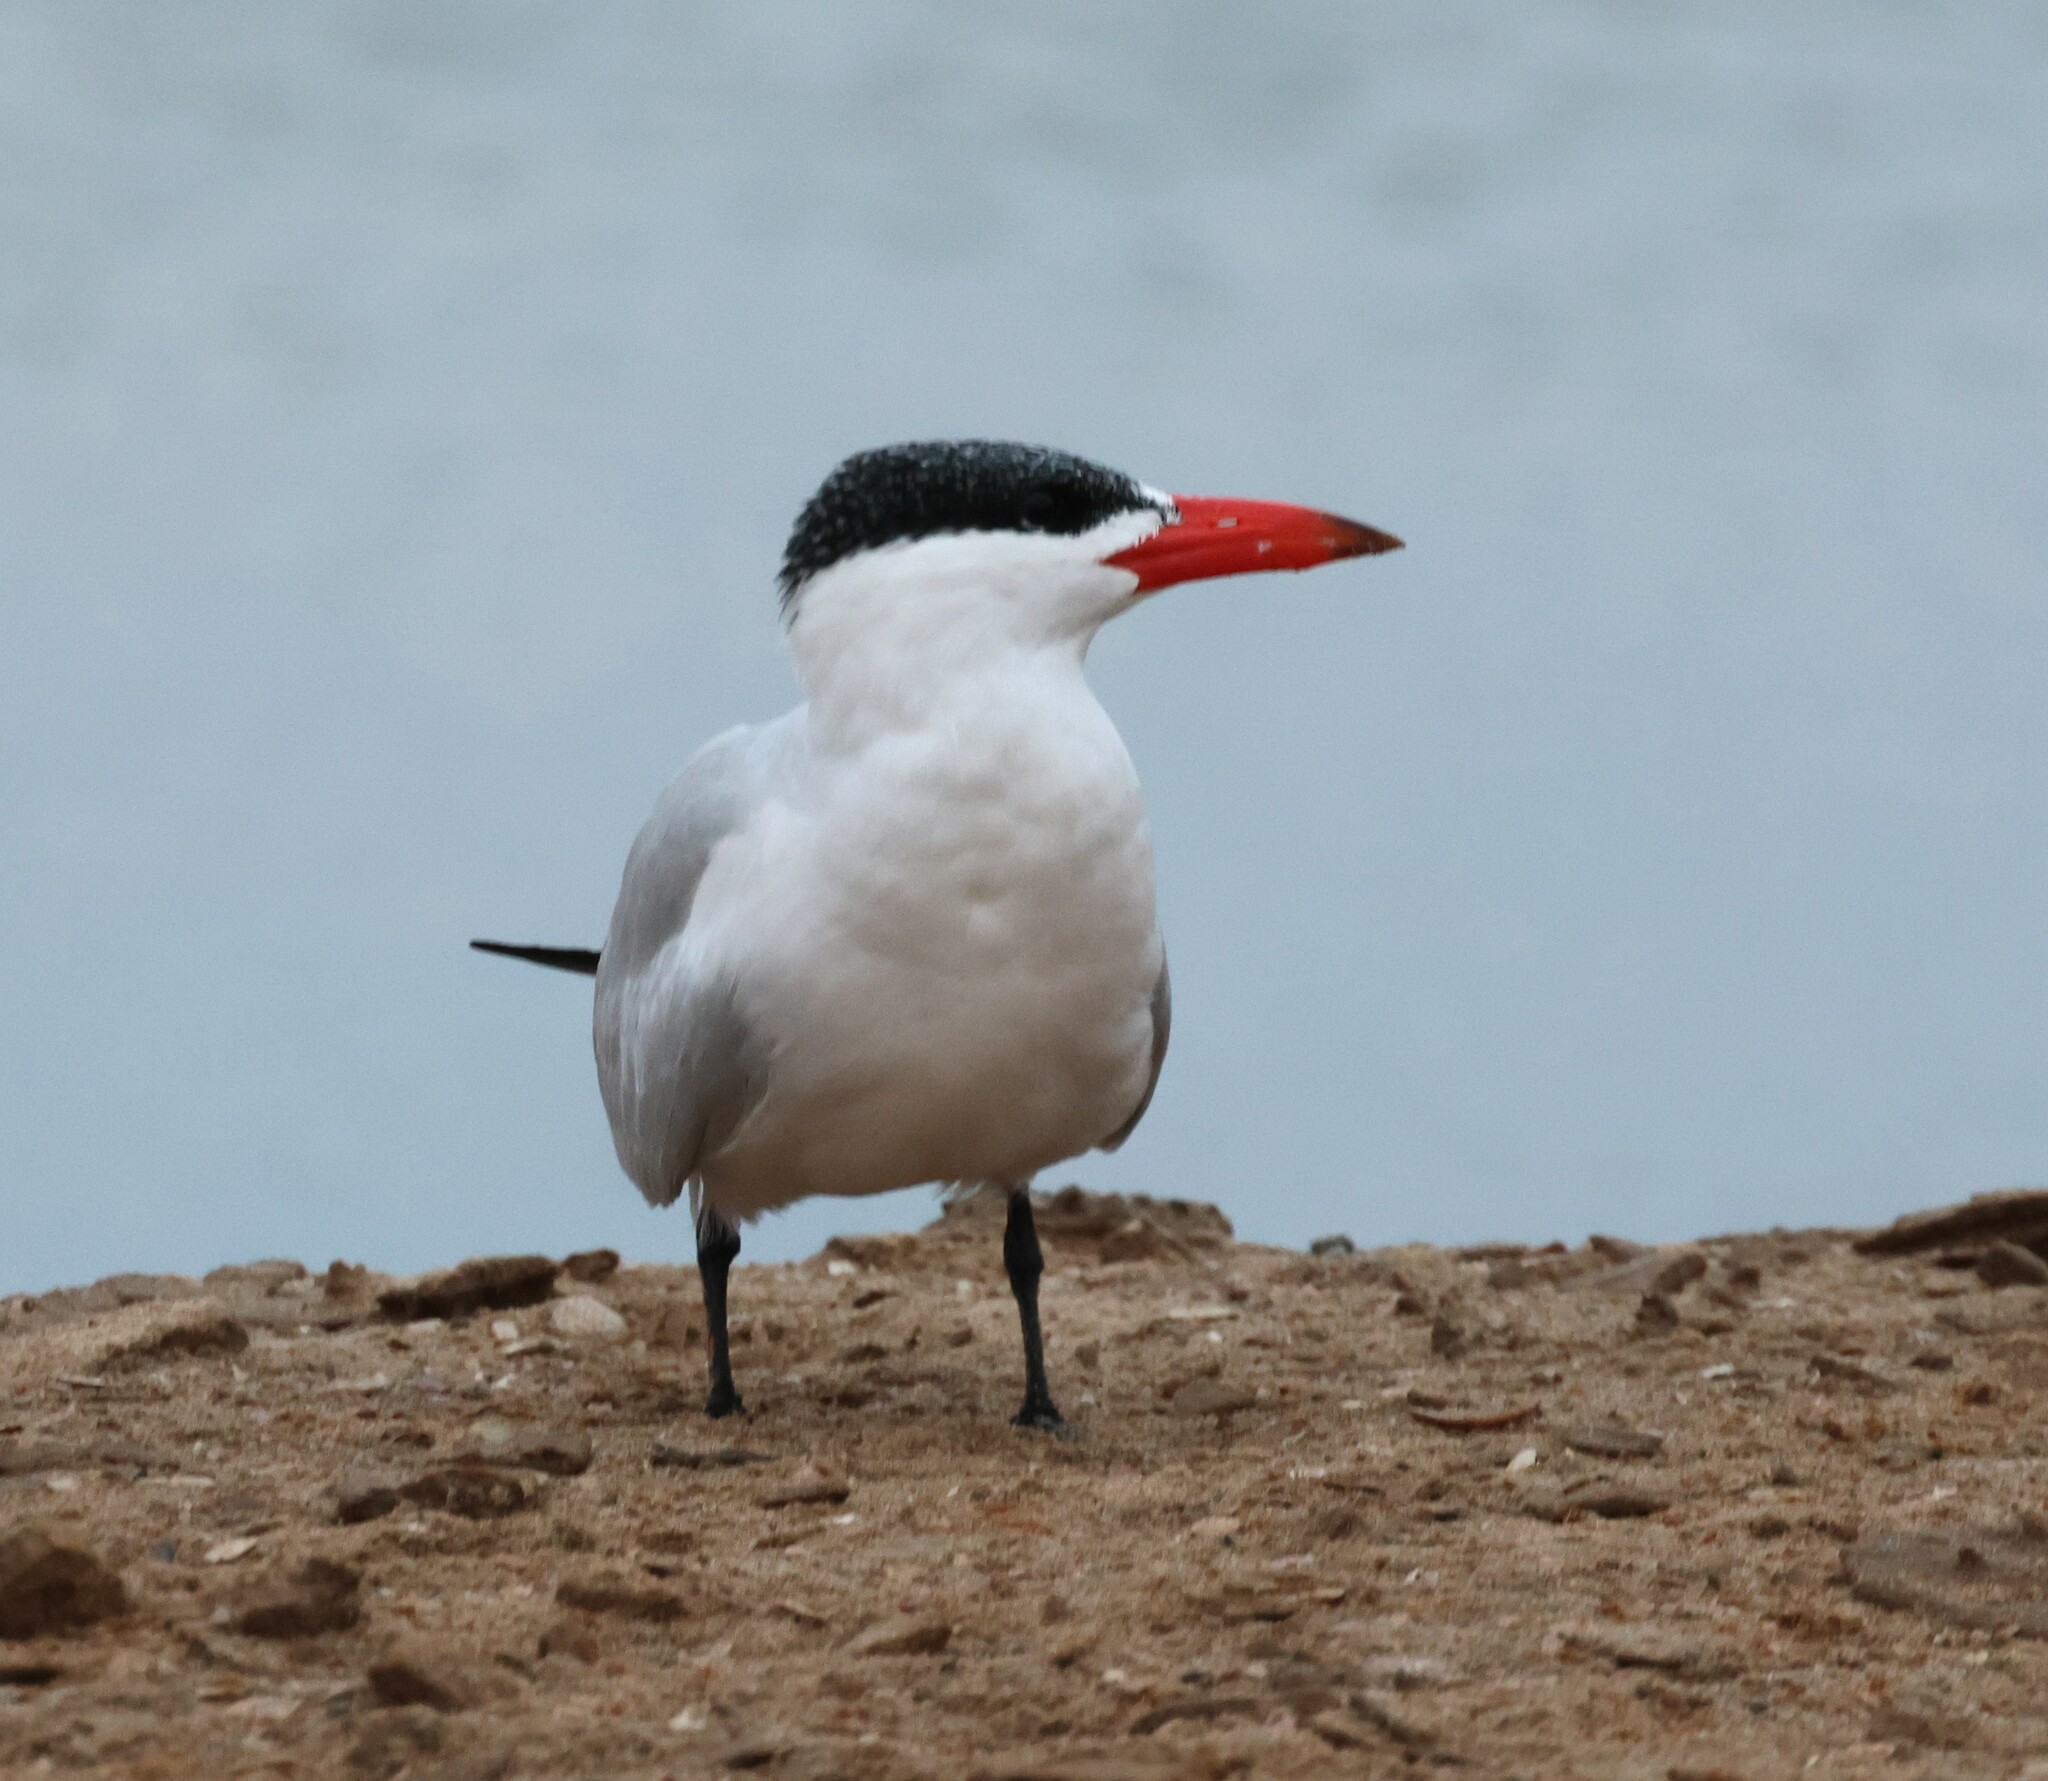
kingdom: Animalia
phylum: Chordata
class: Aves
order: Charadriiformes
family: Laridae
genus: Hydroprogne
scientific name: Hydroprogne caspia
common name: Caspian tern
